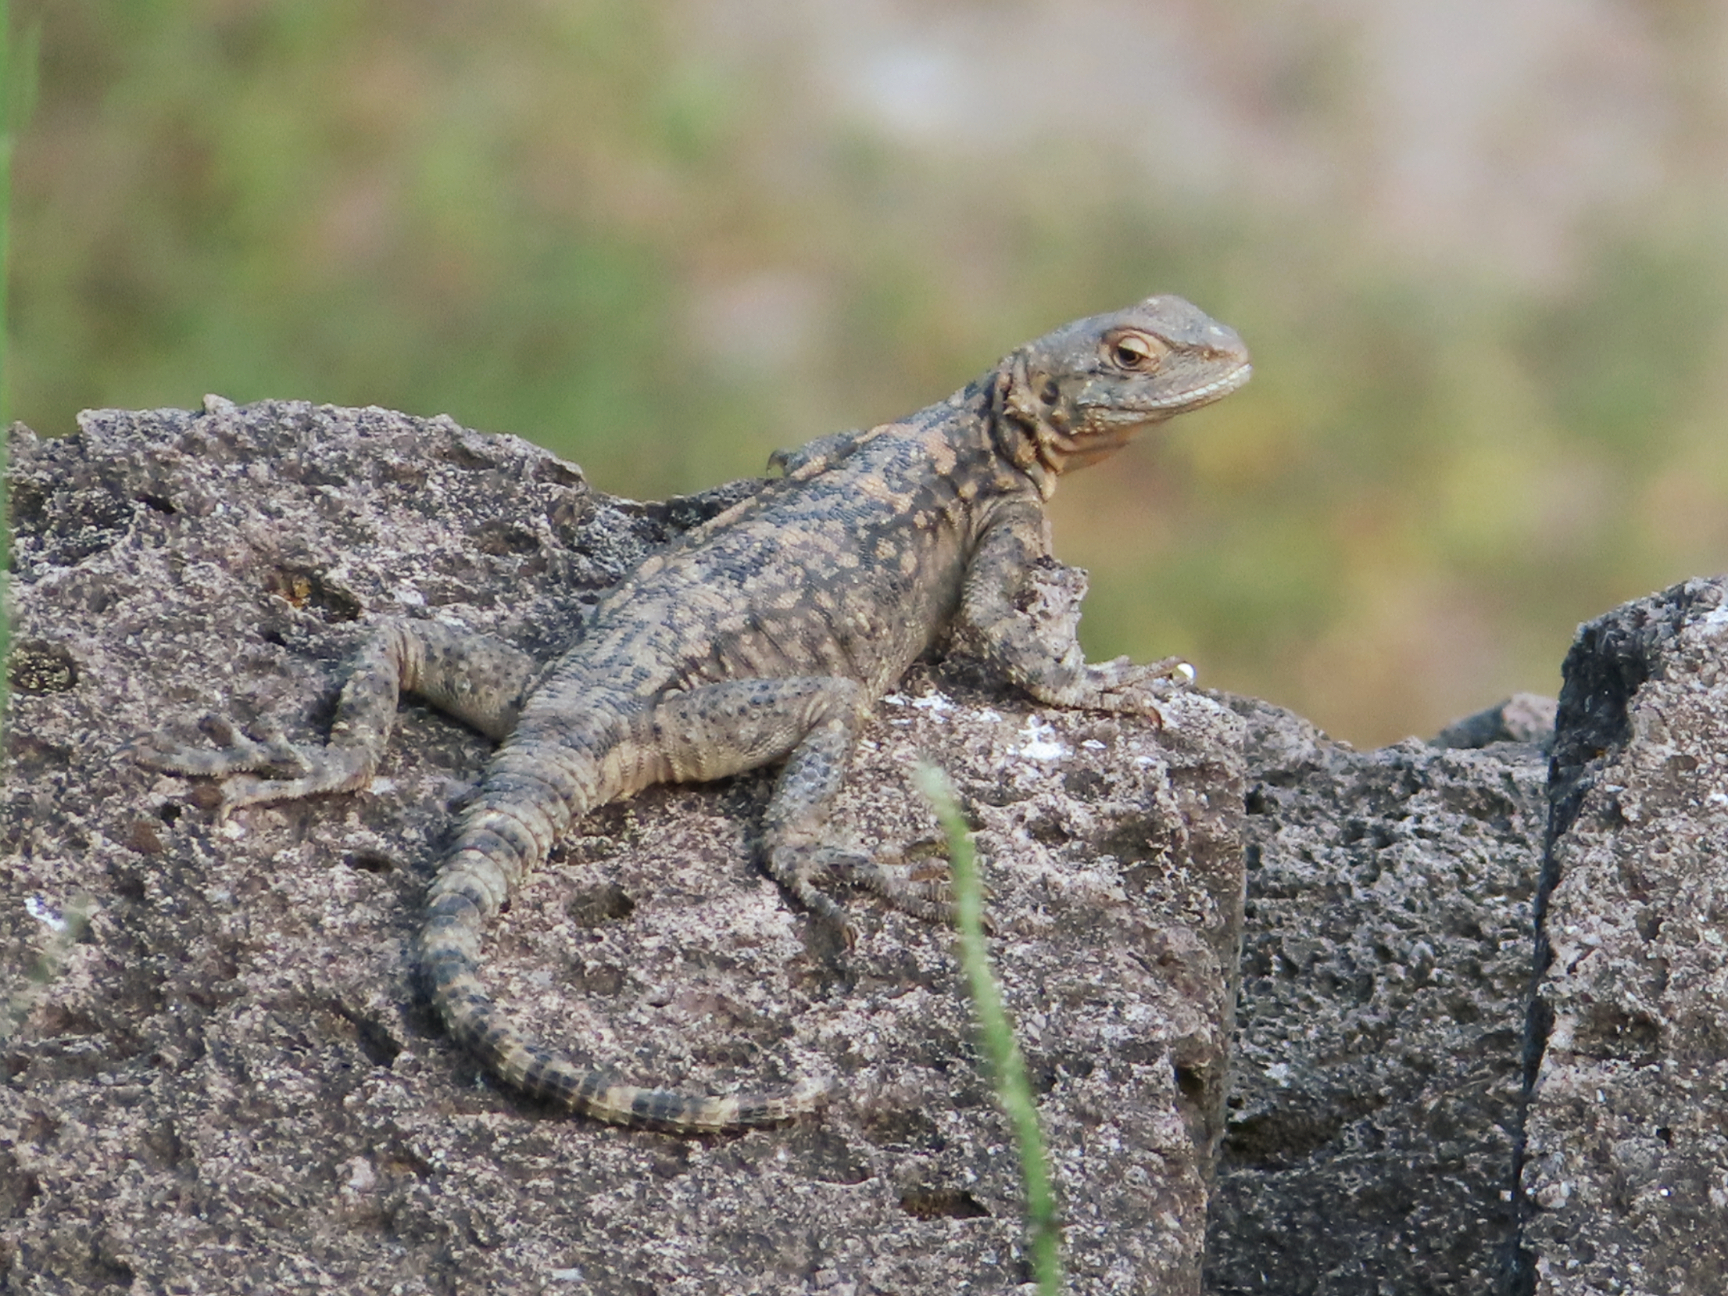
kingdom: Animalia
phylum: Chordata
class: Squamata
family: Agamidae
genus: Paralaudakia
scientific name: Paralaudakia caucasia
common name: Caucasian agama
